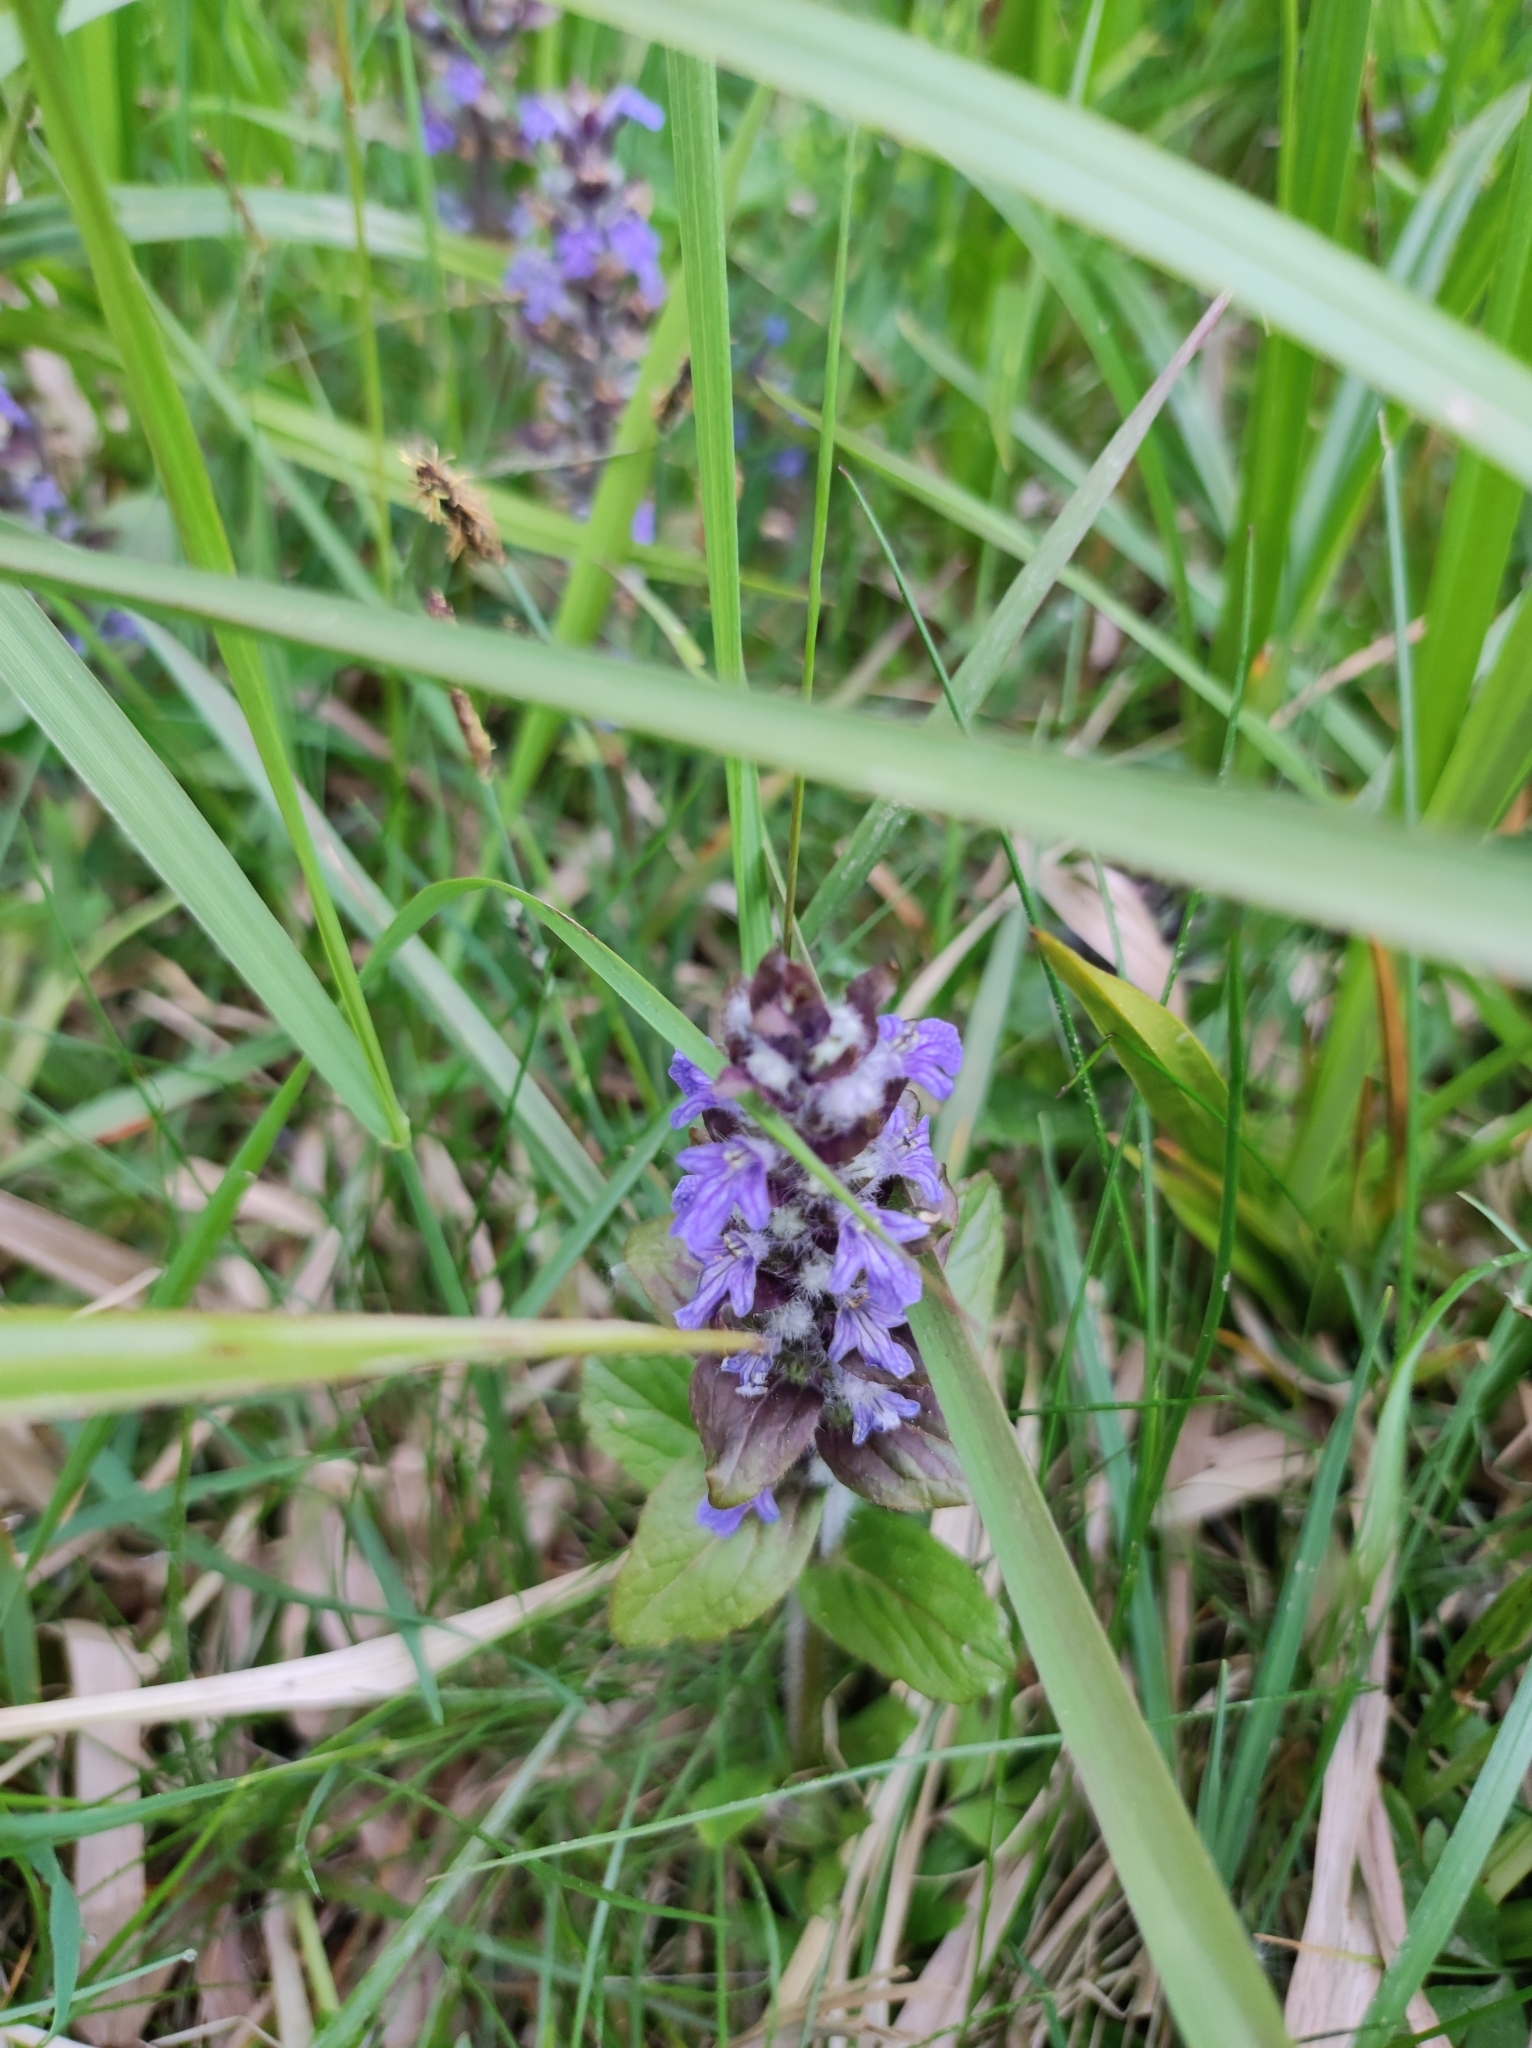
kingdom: Plantae
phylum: Tracheophyta
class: Magnoliopsida
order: Lamiales
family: Lamiaceae
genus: Ajuga
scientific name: Ajuga reptans
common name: Bugle
